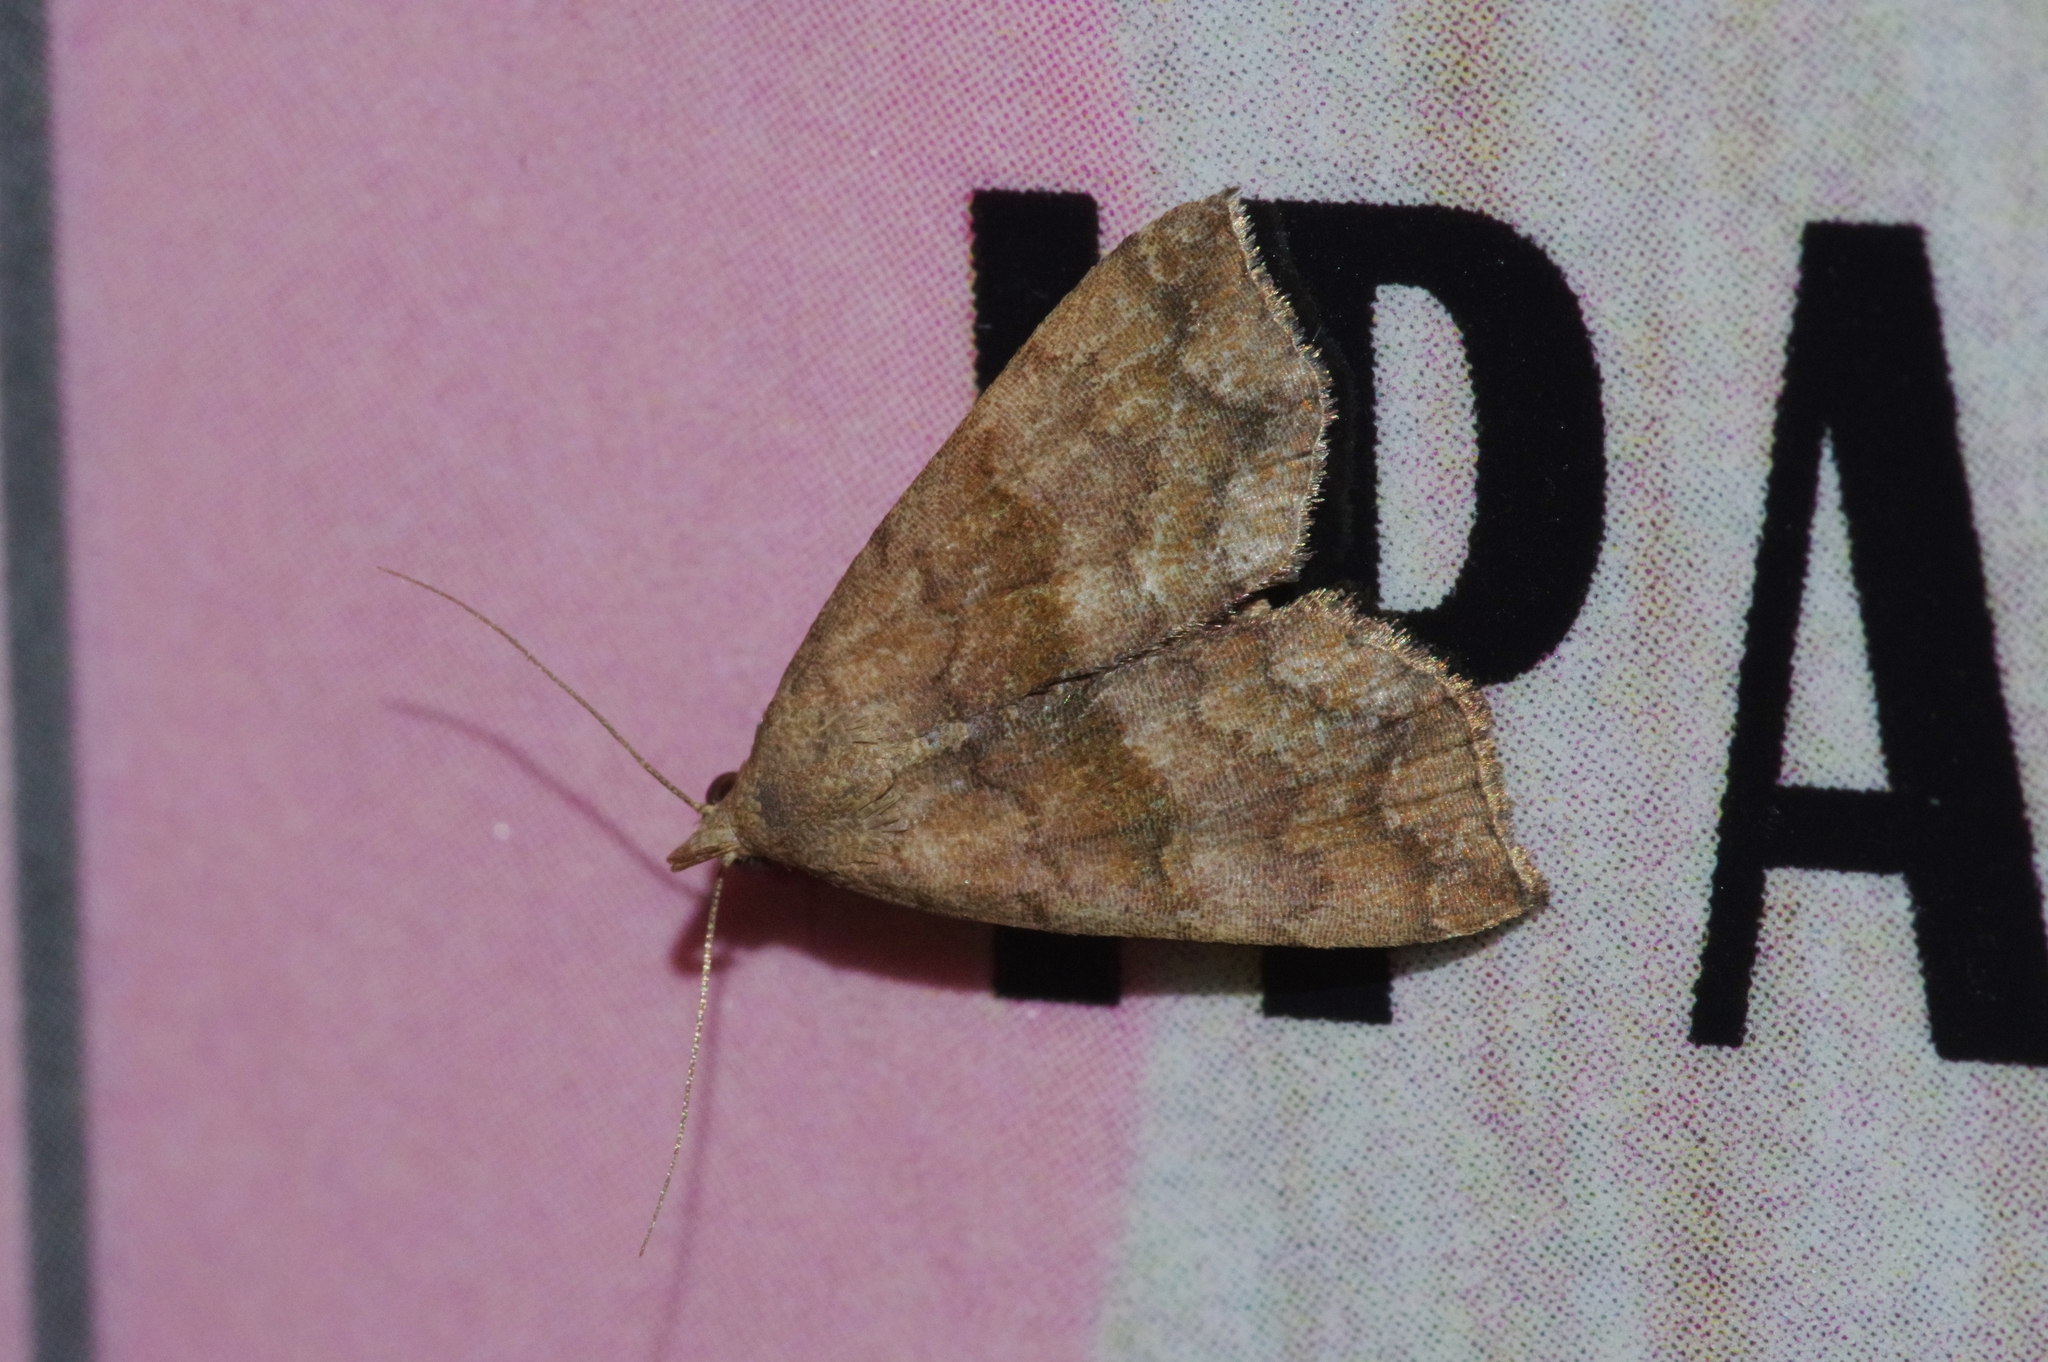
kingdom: Animalia
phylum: Arthropoda
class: Insecta
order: Lepidoptera
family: Erebidae
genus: Polypogon
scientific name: Polypogon Hipoepa fractalis
